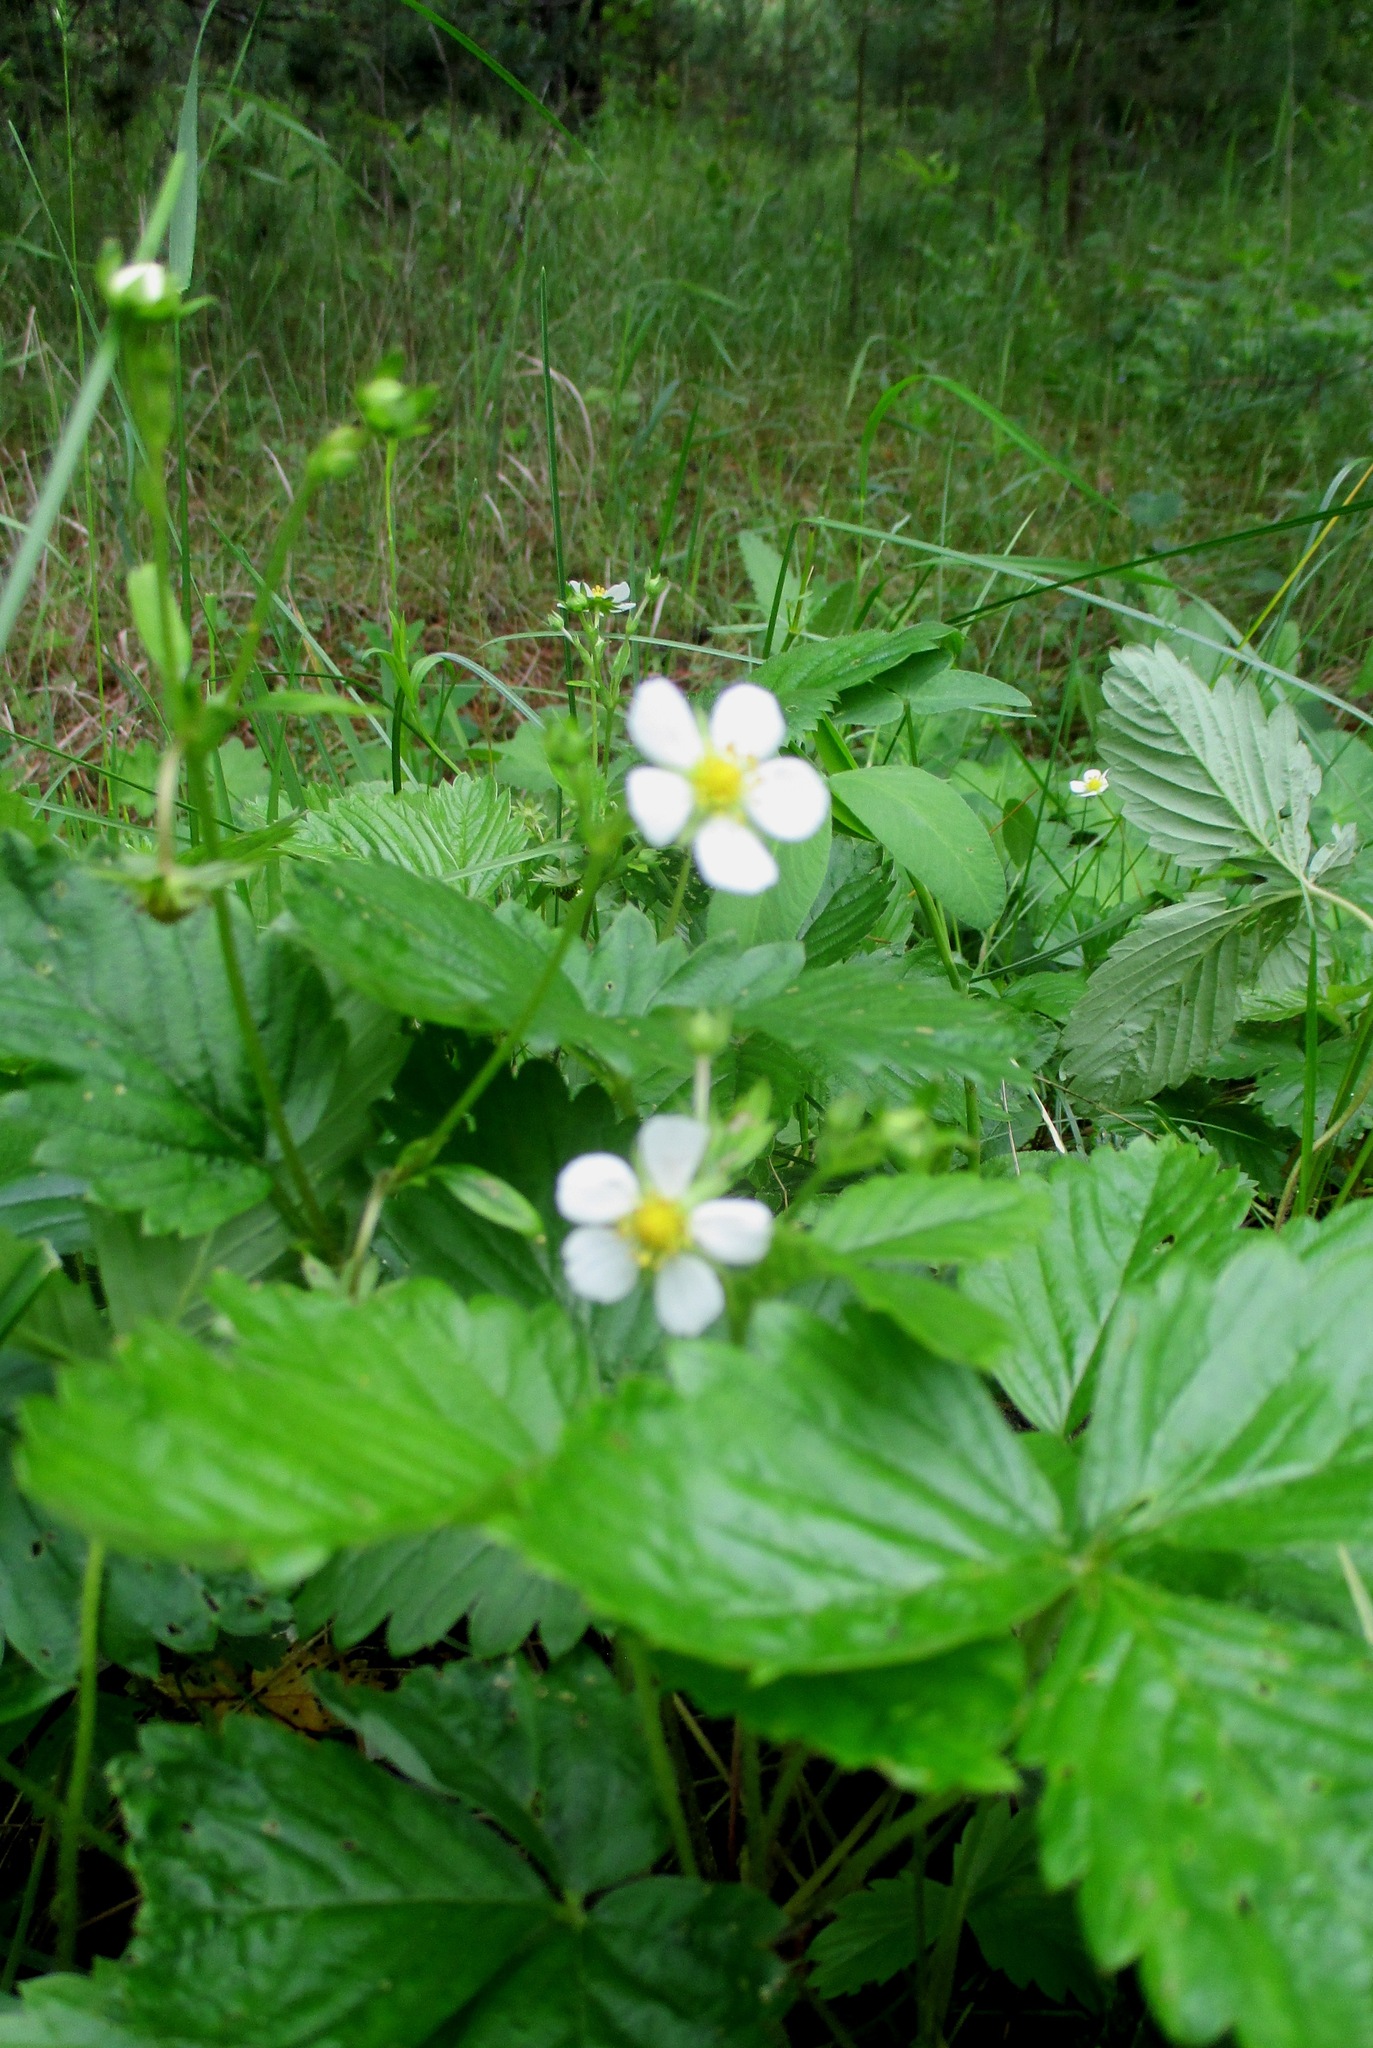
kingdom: Plantae
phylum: Tracheophyta
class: Magnoliopsida
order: Rosales
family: Rosaceae
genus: Fragaria
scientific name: Fragaria vesca
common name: Wild strawberry
